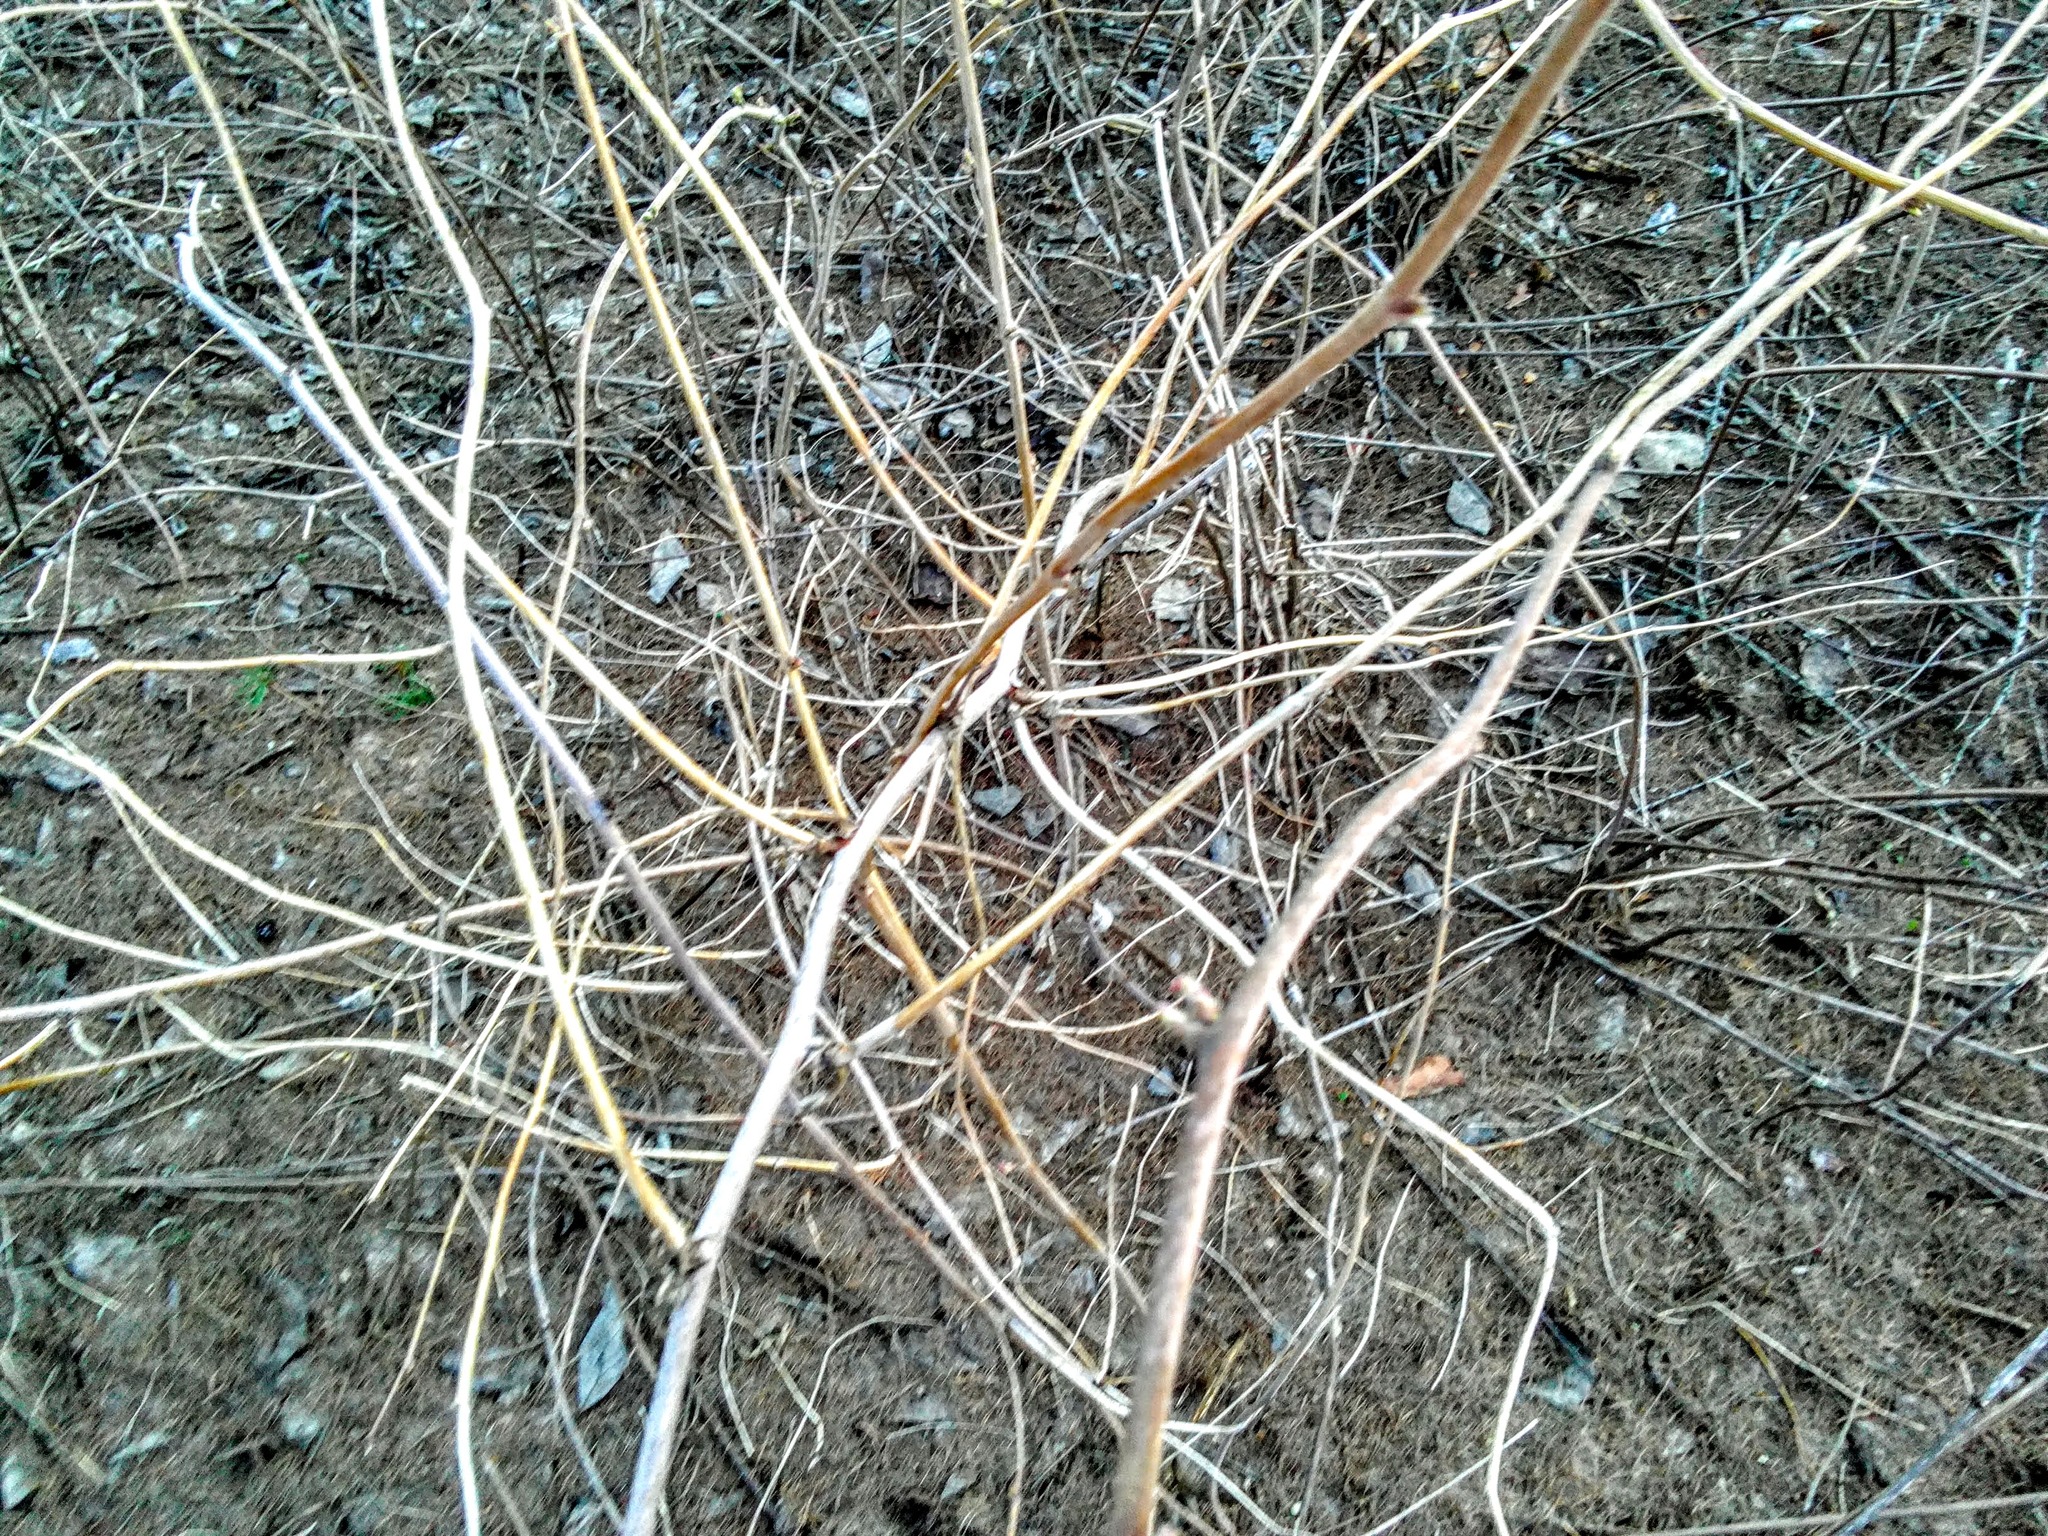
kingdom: Plantae
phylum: Tracheophyta
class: Magnoliopsida
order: Rosales
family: Rosaceae
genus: Rubus
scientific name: Rubus idaeus
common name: Raspberry
